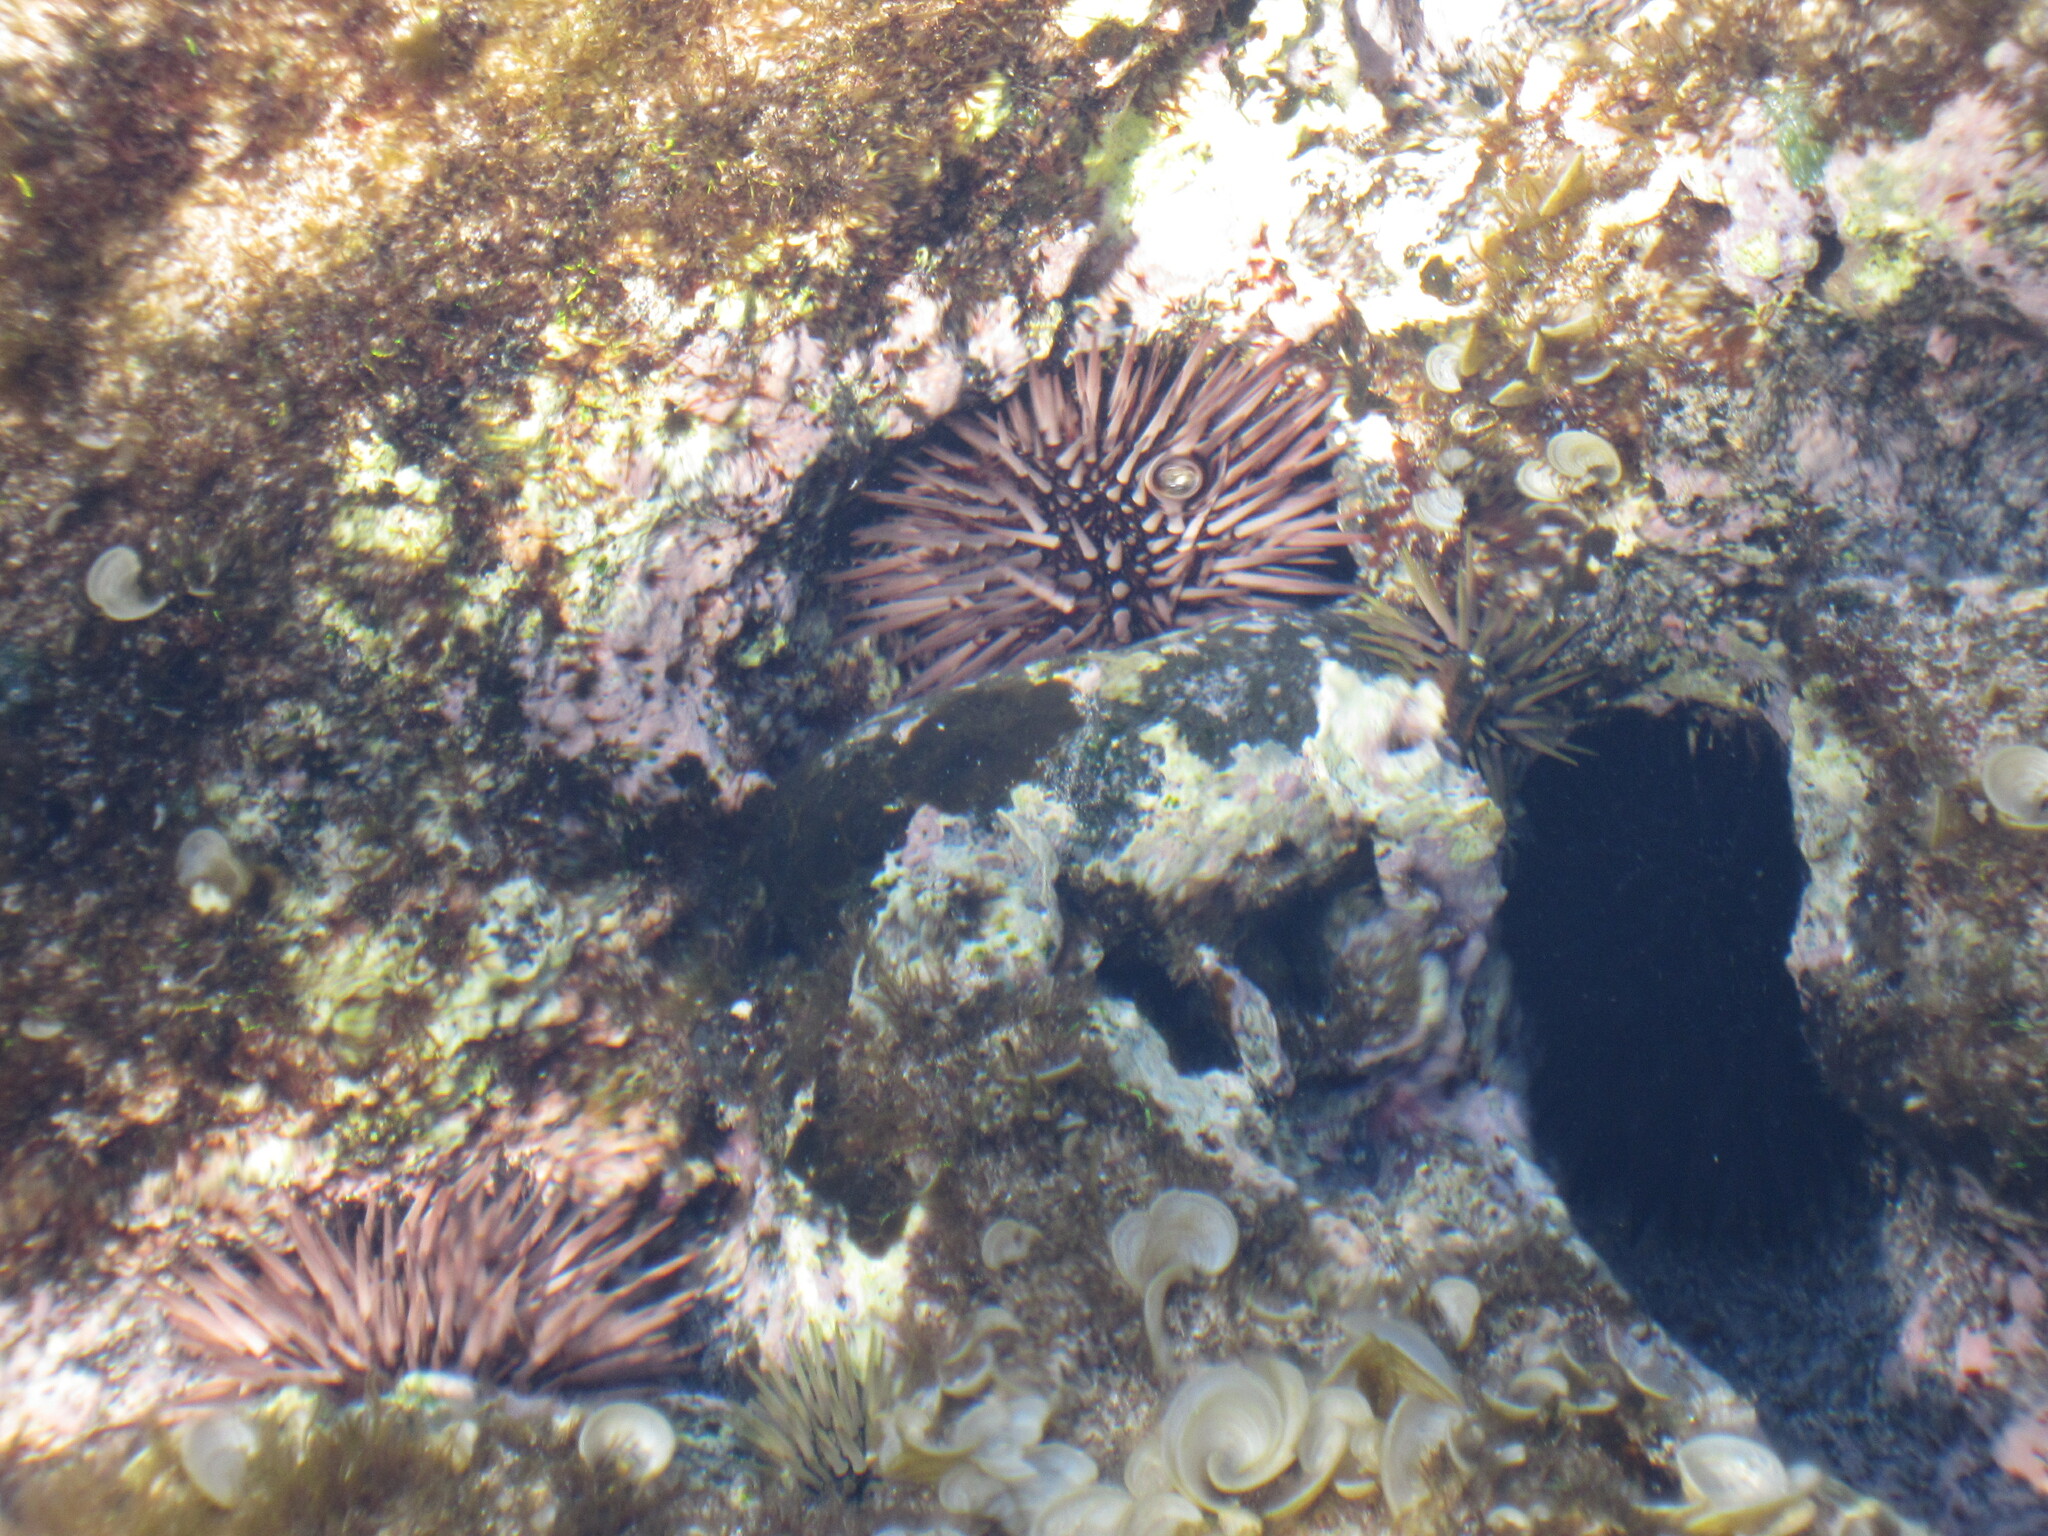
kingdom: Animalia
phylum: Echinodermata
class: Echinoidea
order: Camarodonta
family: Echinometridae
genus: Echinometra
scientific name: Echinometra mathaei
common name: Rock-boring urchin
